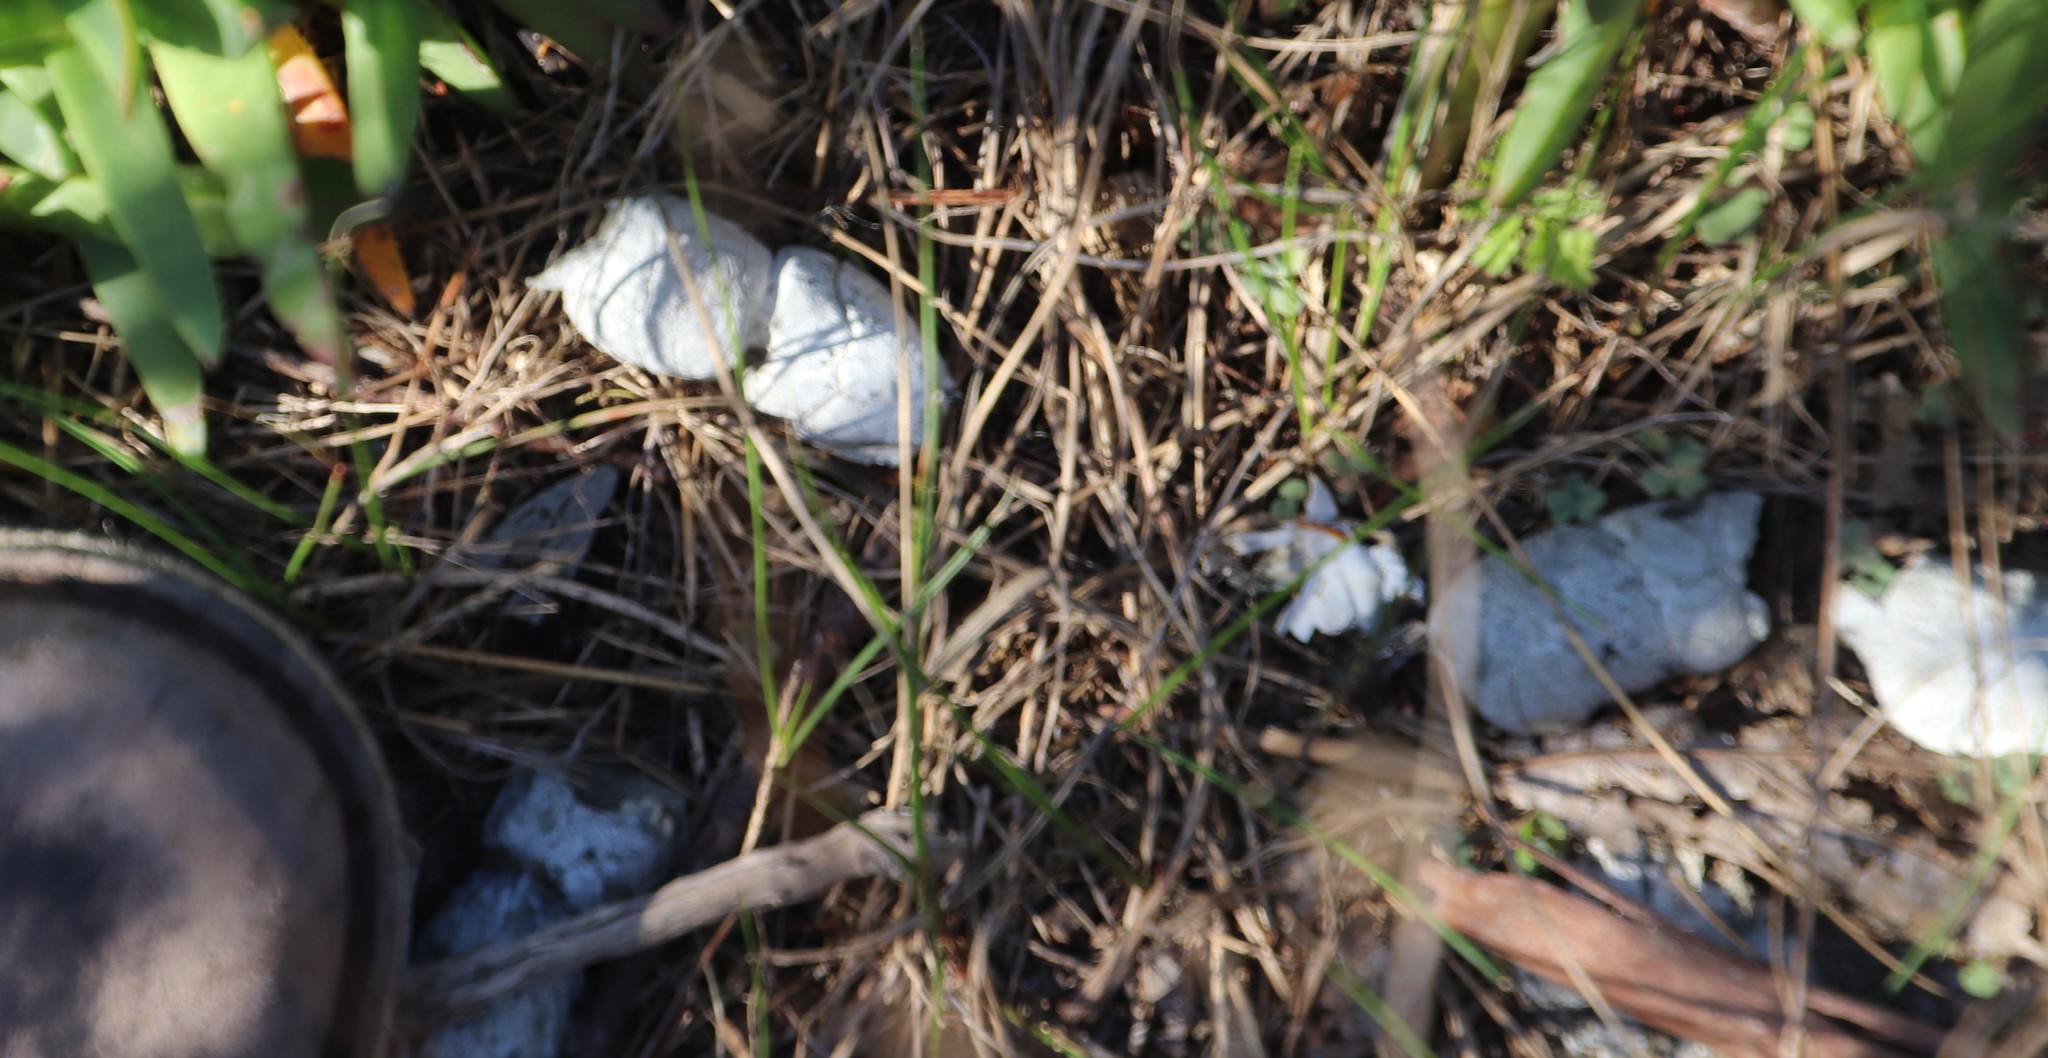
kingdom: Animalia
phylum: Chordata
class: Mammalia
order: Carnivora
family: Felidae
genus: Caracal
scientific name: Caracal caracal
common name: Caracal
